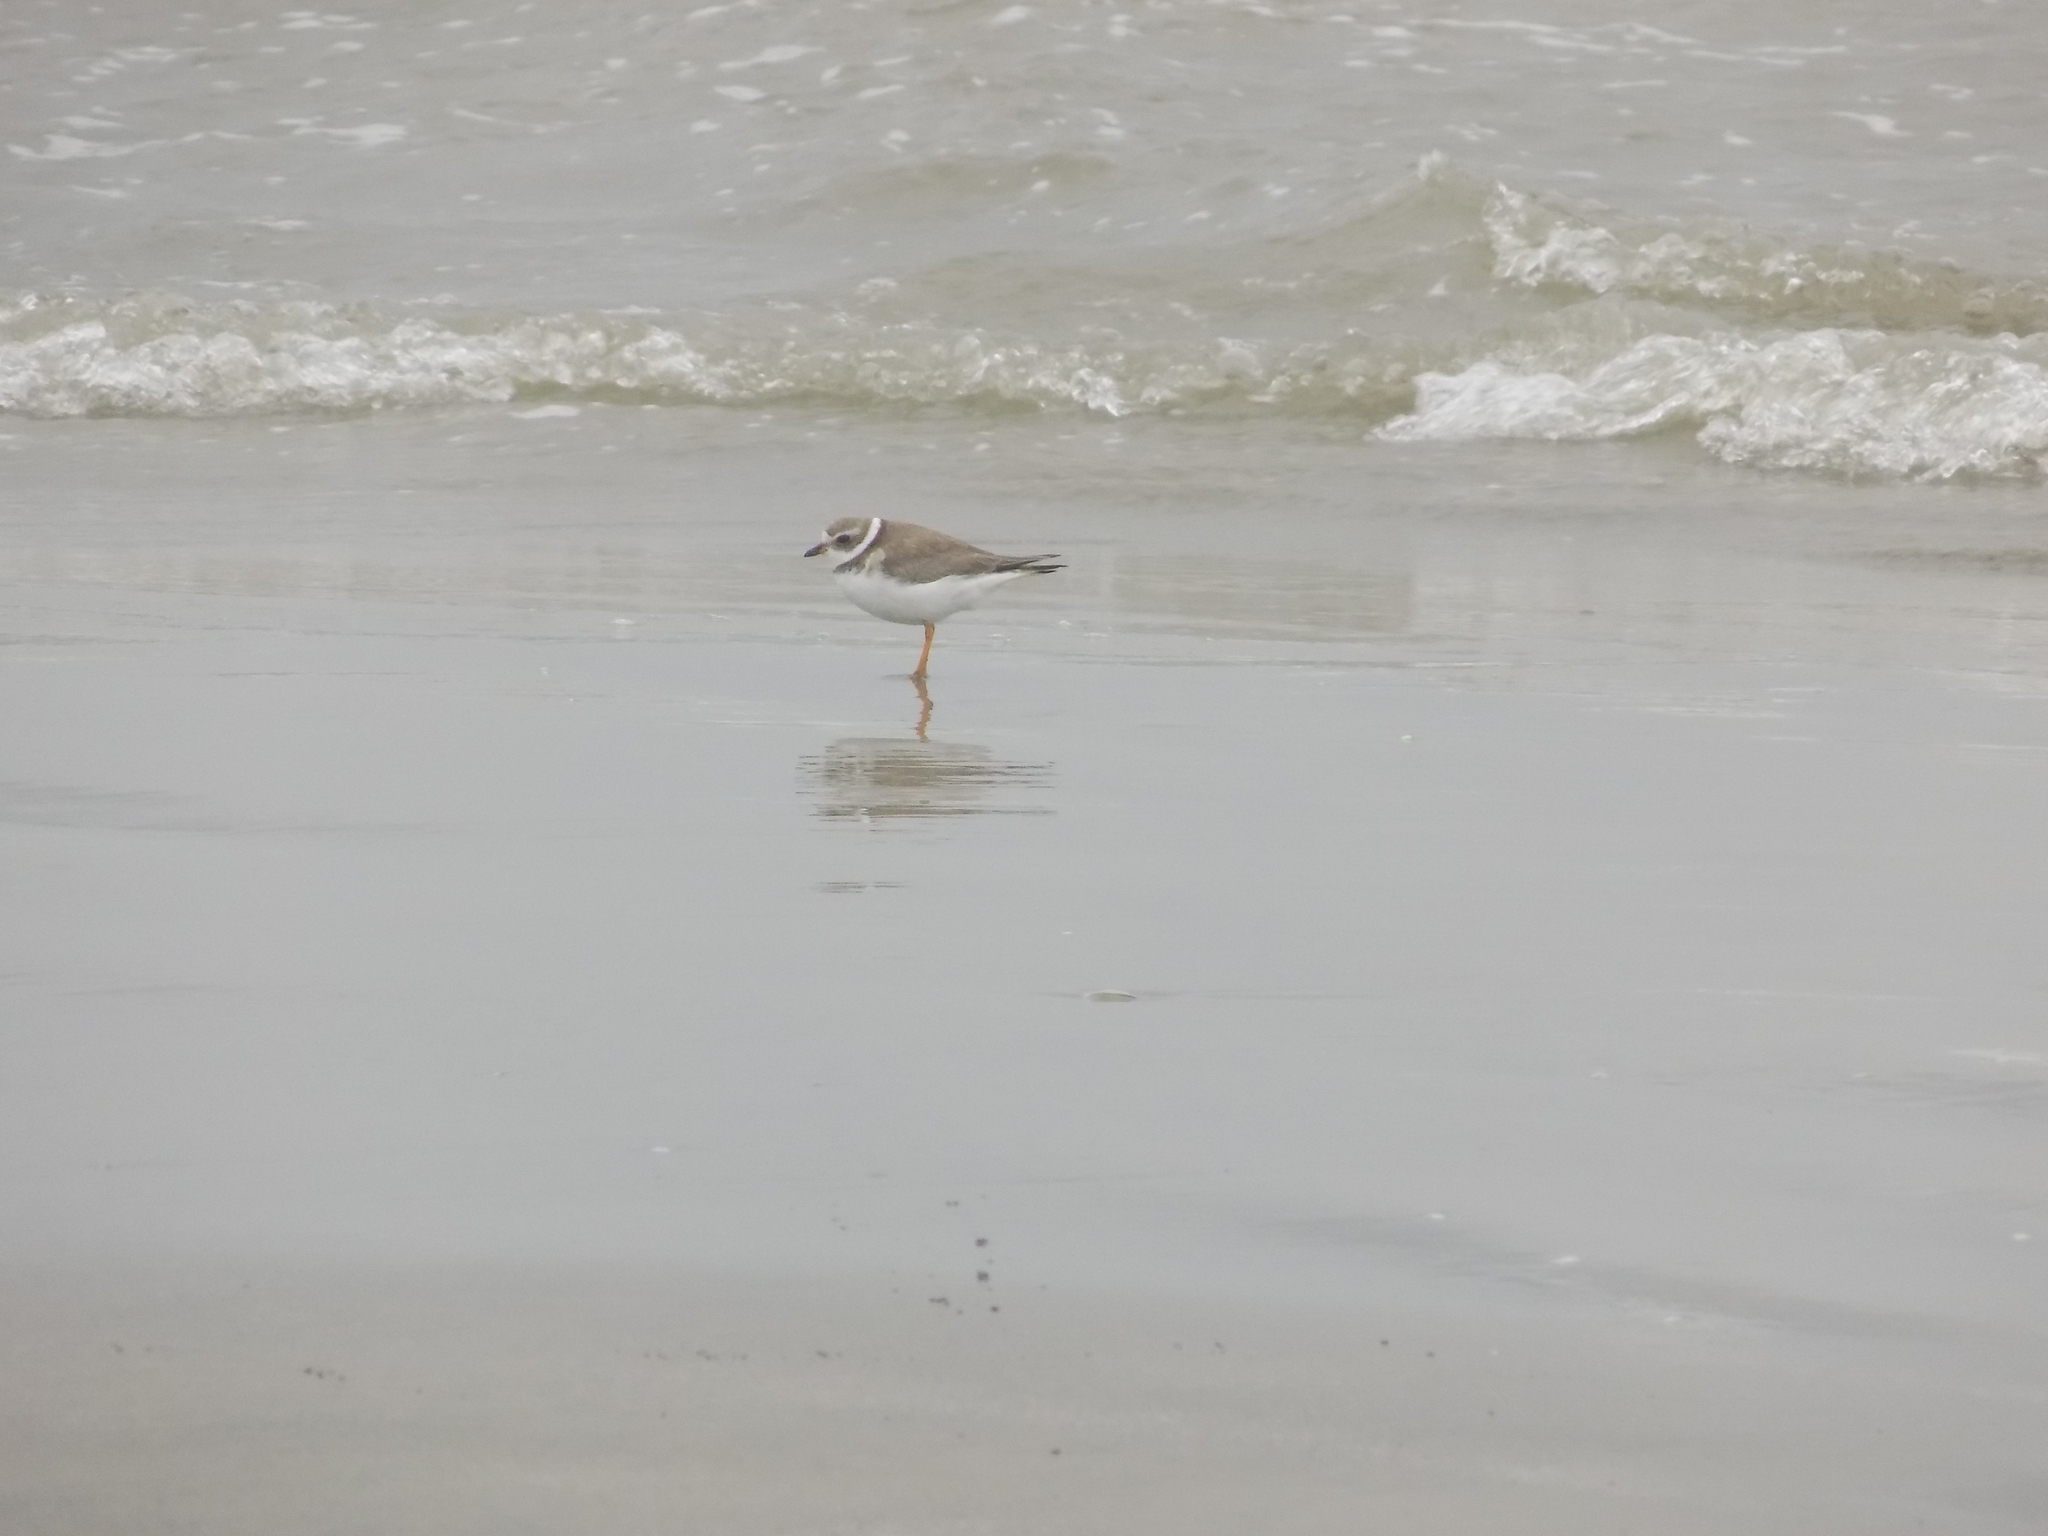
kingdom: Animalia
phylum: Chordata
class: Aves
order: Charadriiformes
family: Charadriidae
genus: Charadrius
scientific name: Charadrius semipalmatus
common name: Semipalmated plover
